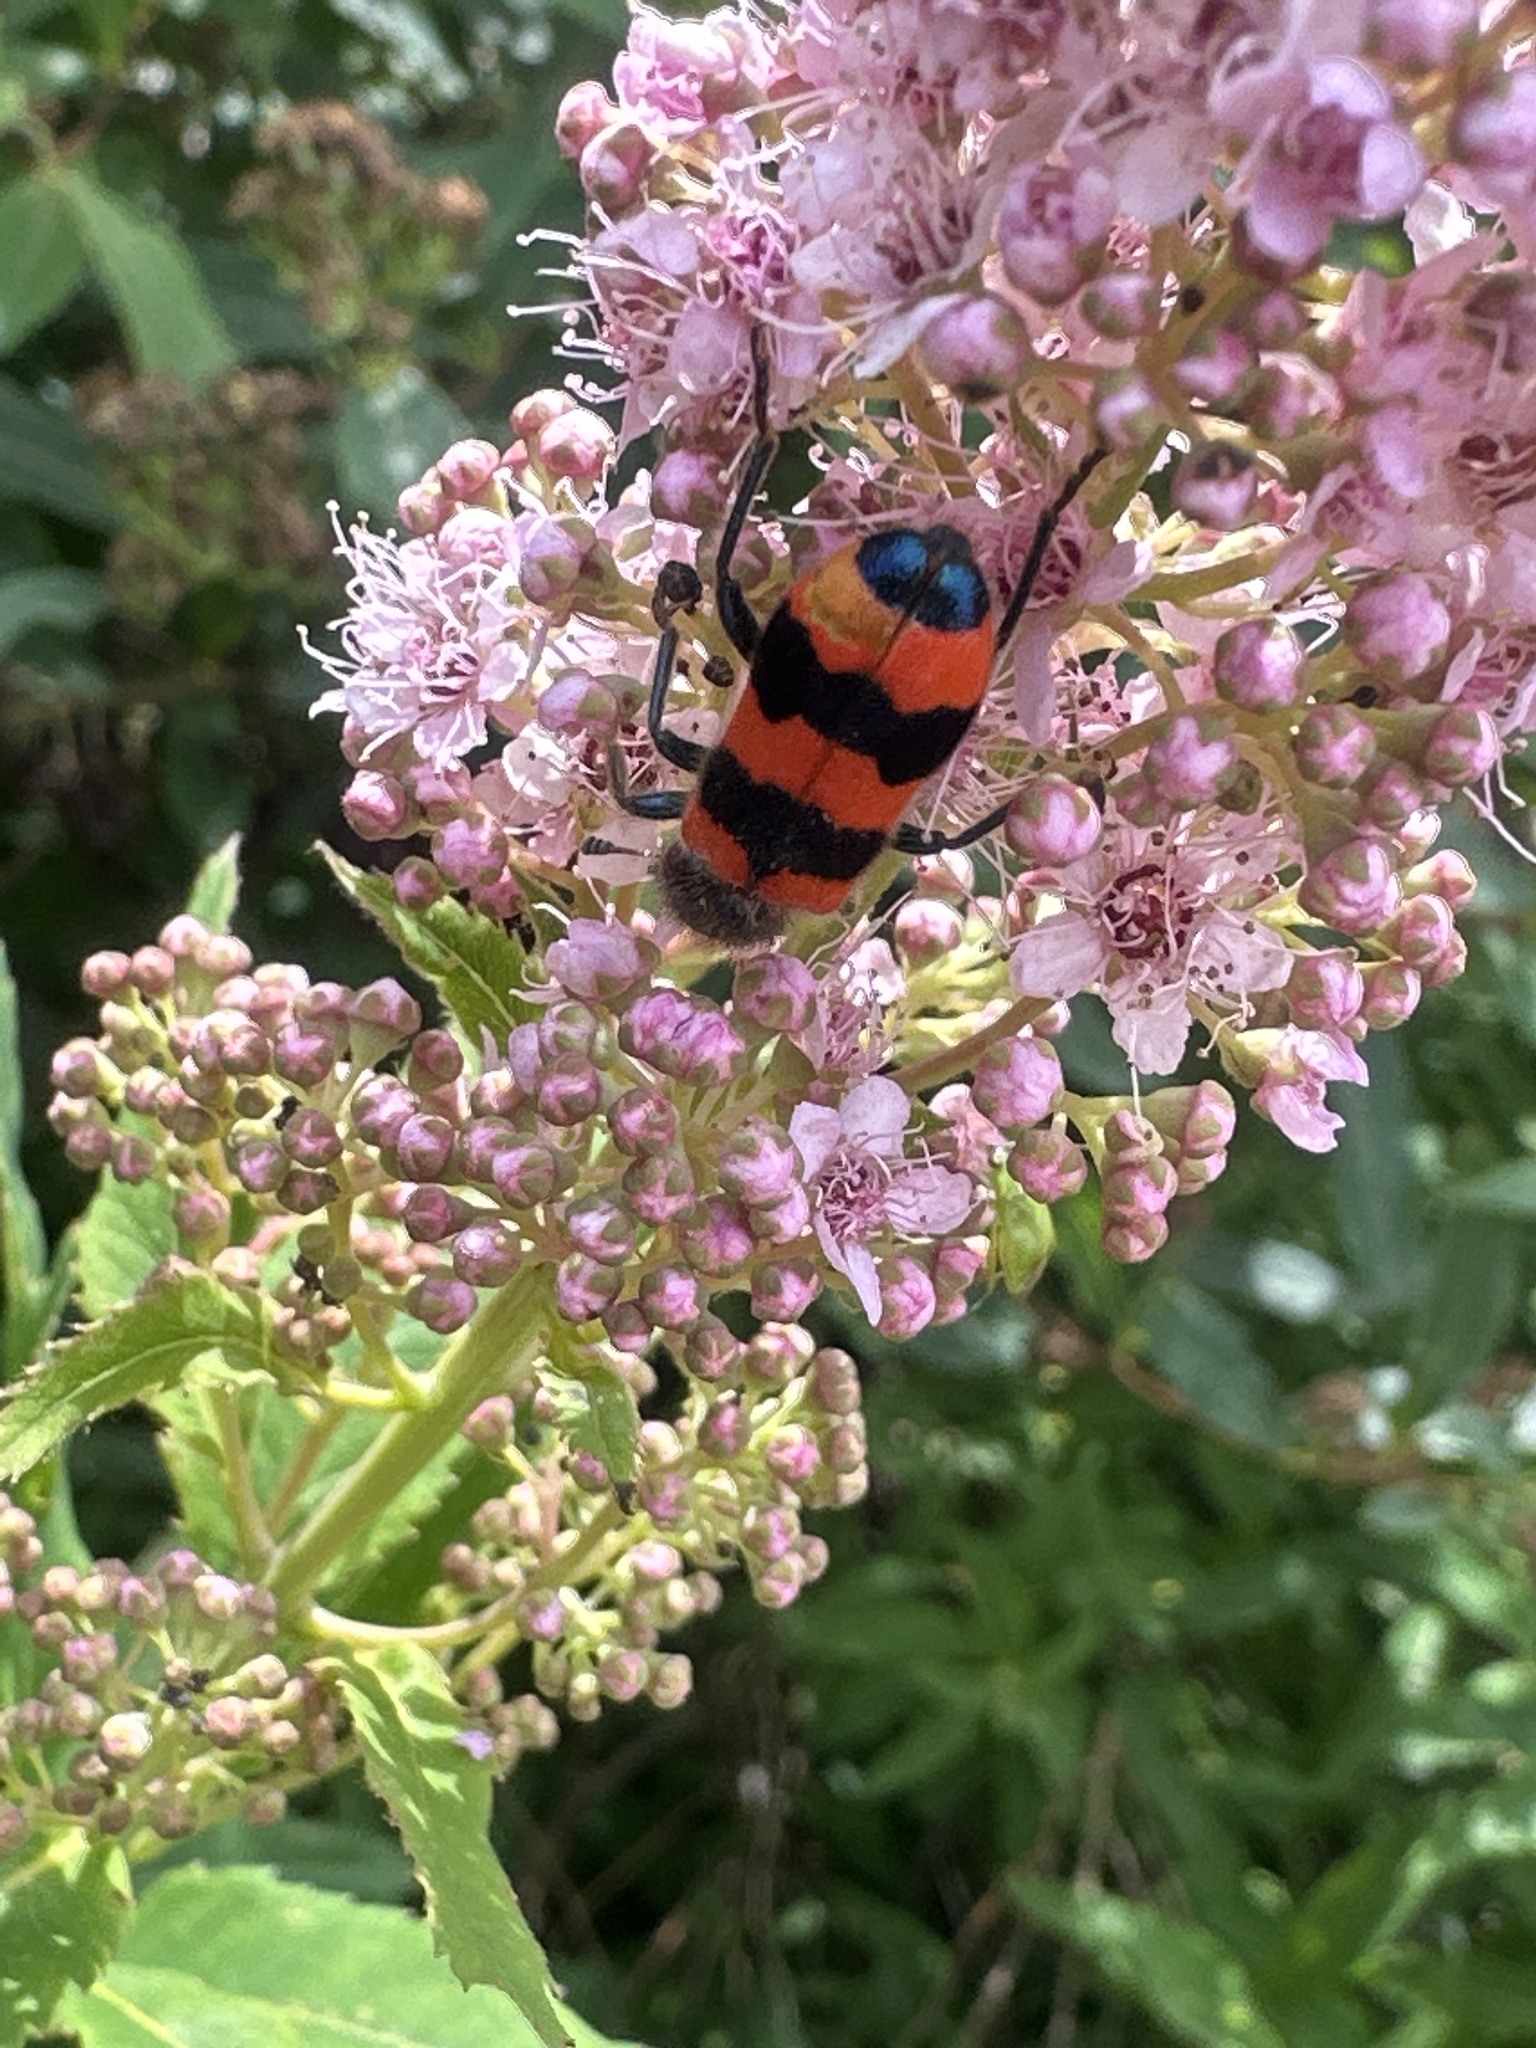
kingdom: Animalia
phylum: Arthropoda
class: Insecta
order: Coleoptera
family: Cleridae
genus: Trichodes
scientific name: Trichodes apiarius
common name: Bee-eating beetle
